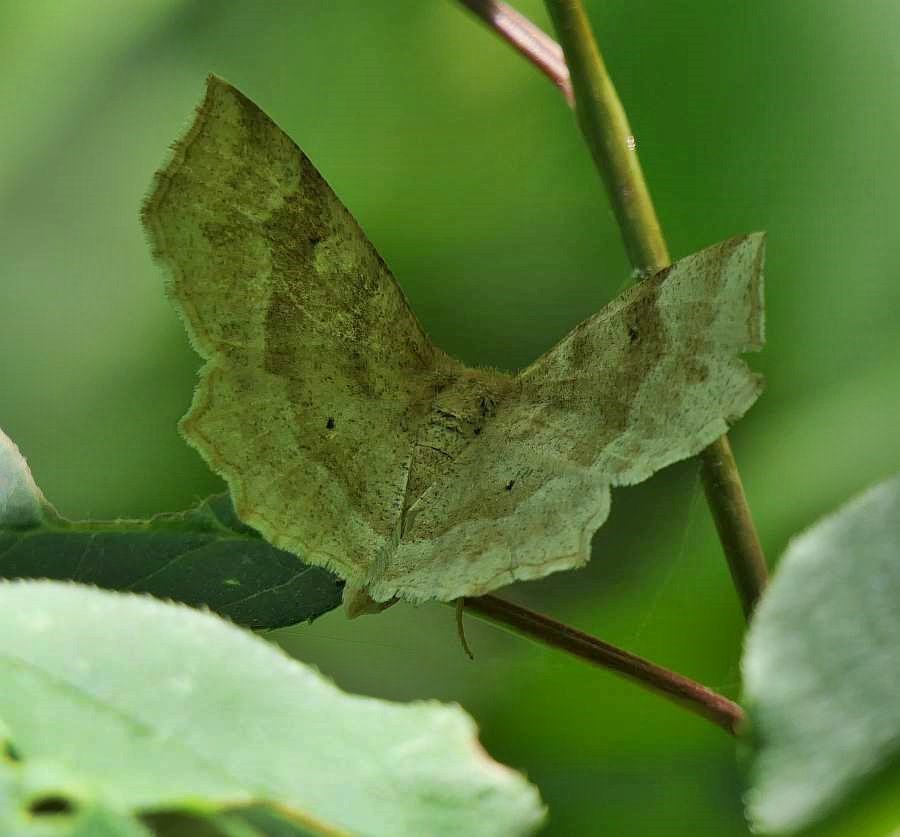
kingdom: Animalia
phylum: Arthropoda
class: Insecta
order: Lepidoptera
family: Geometridae
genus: Metarranthis
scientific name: Metarranthis indeclinata
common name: Pale metarranthis
